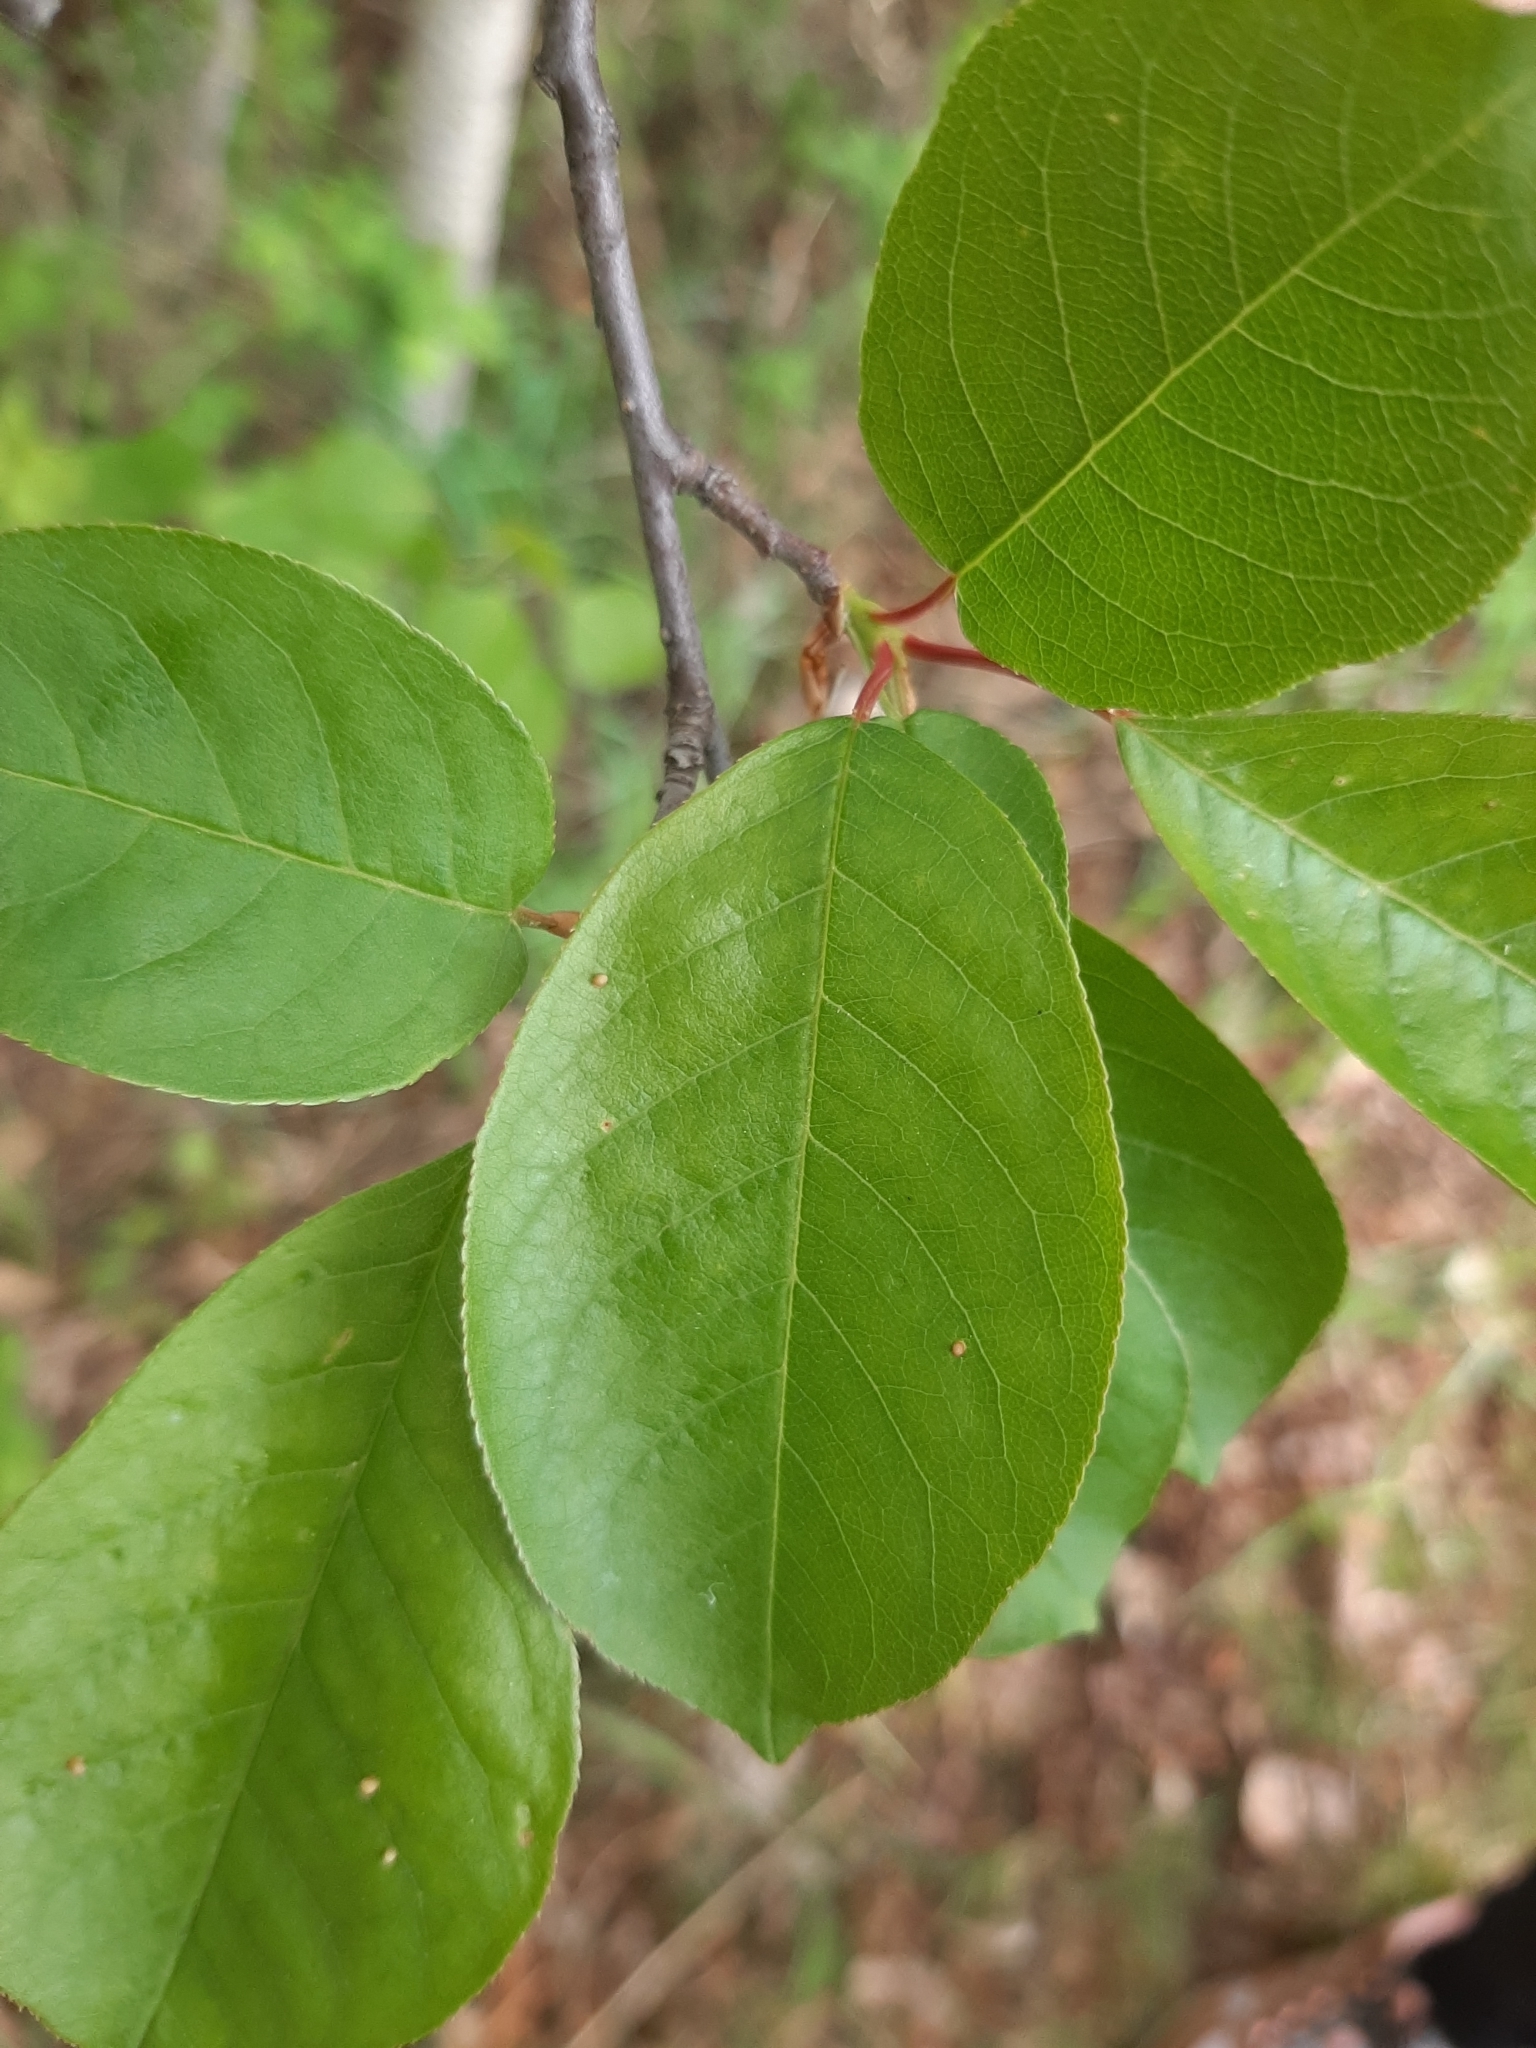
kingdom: Plantae
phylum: Tracheophyta
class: Magnoliopsida
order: Rosales
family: Rosaceae
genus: Prunus
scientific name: Prunus virginiana
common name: Chokecherry
